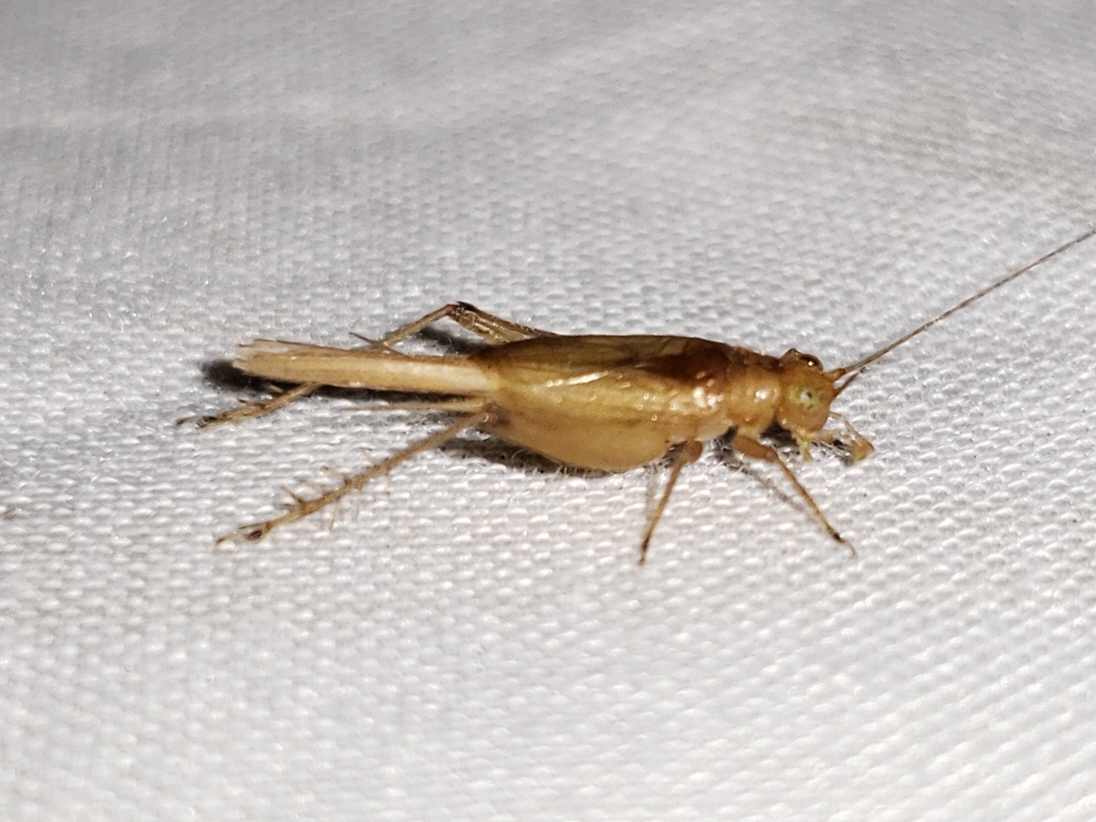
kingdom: Animalia
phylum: Arthropoda
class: Insecta
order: Orthoptera
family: Trigonidiidae
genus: Anaxipha
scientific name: Anaxipha delicatula
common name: Chirping trig
